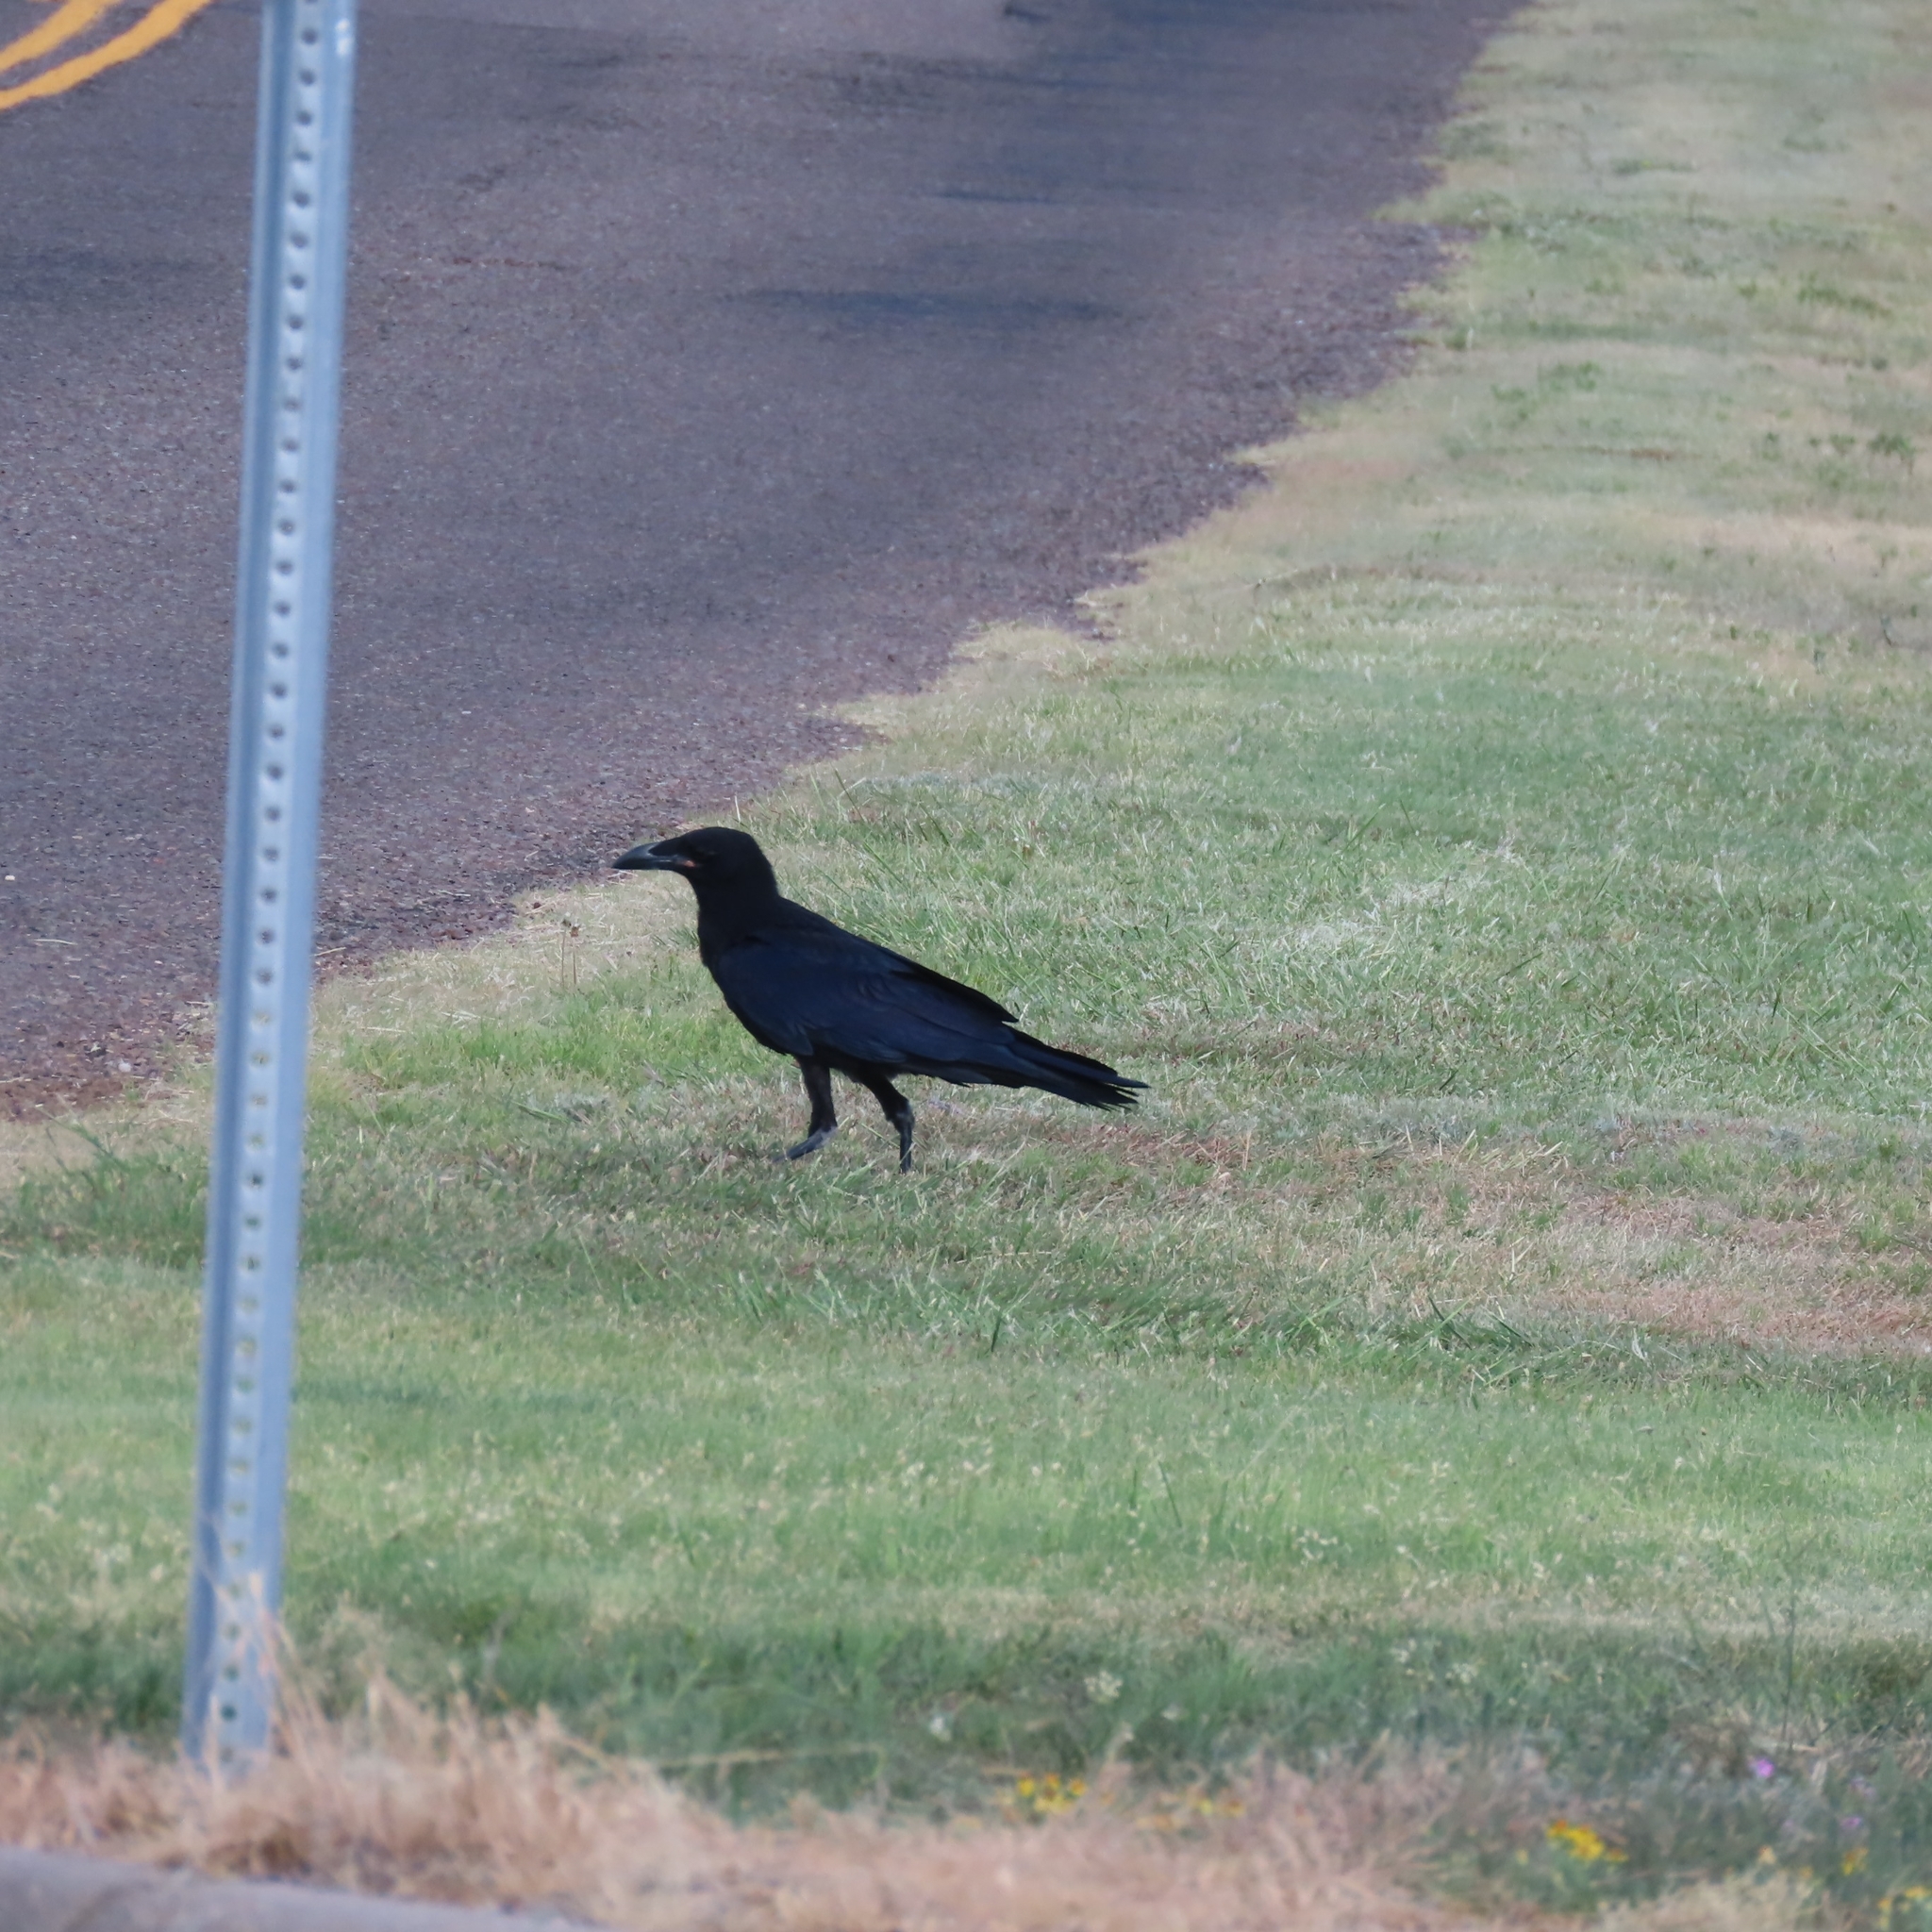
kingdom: Animalia
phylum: Chordata
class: Aves
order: Passeriformes
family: Corvidae
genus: Corvus
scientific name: Corvus corax
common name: Common raven
